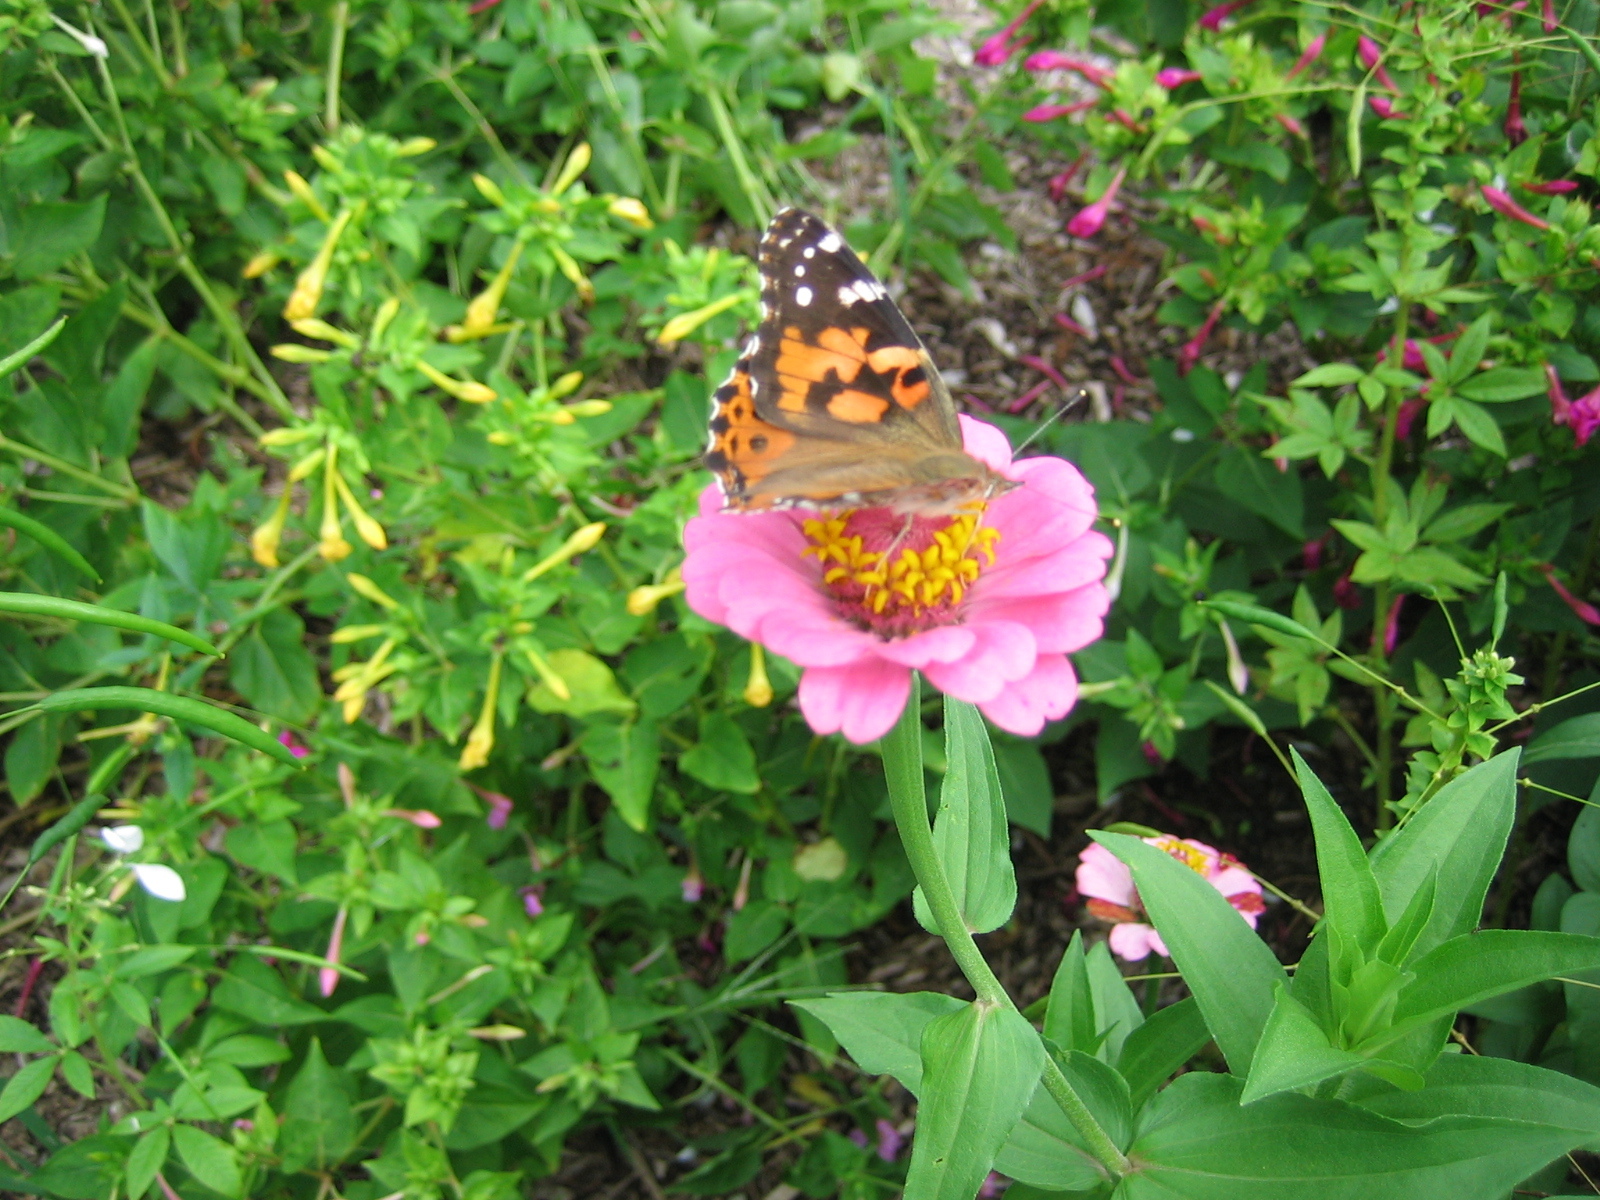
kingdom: Animalia
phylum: Arthropoda
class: Insecta
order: Lepidoptera
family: Nymphalidae
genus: Vanessa
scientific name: Vanessa cardui
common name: Painted lady
